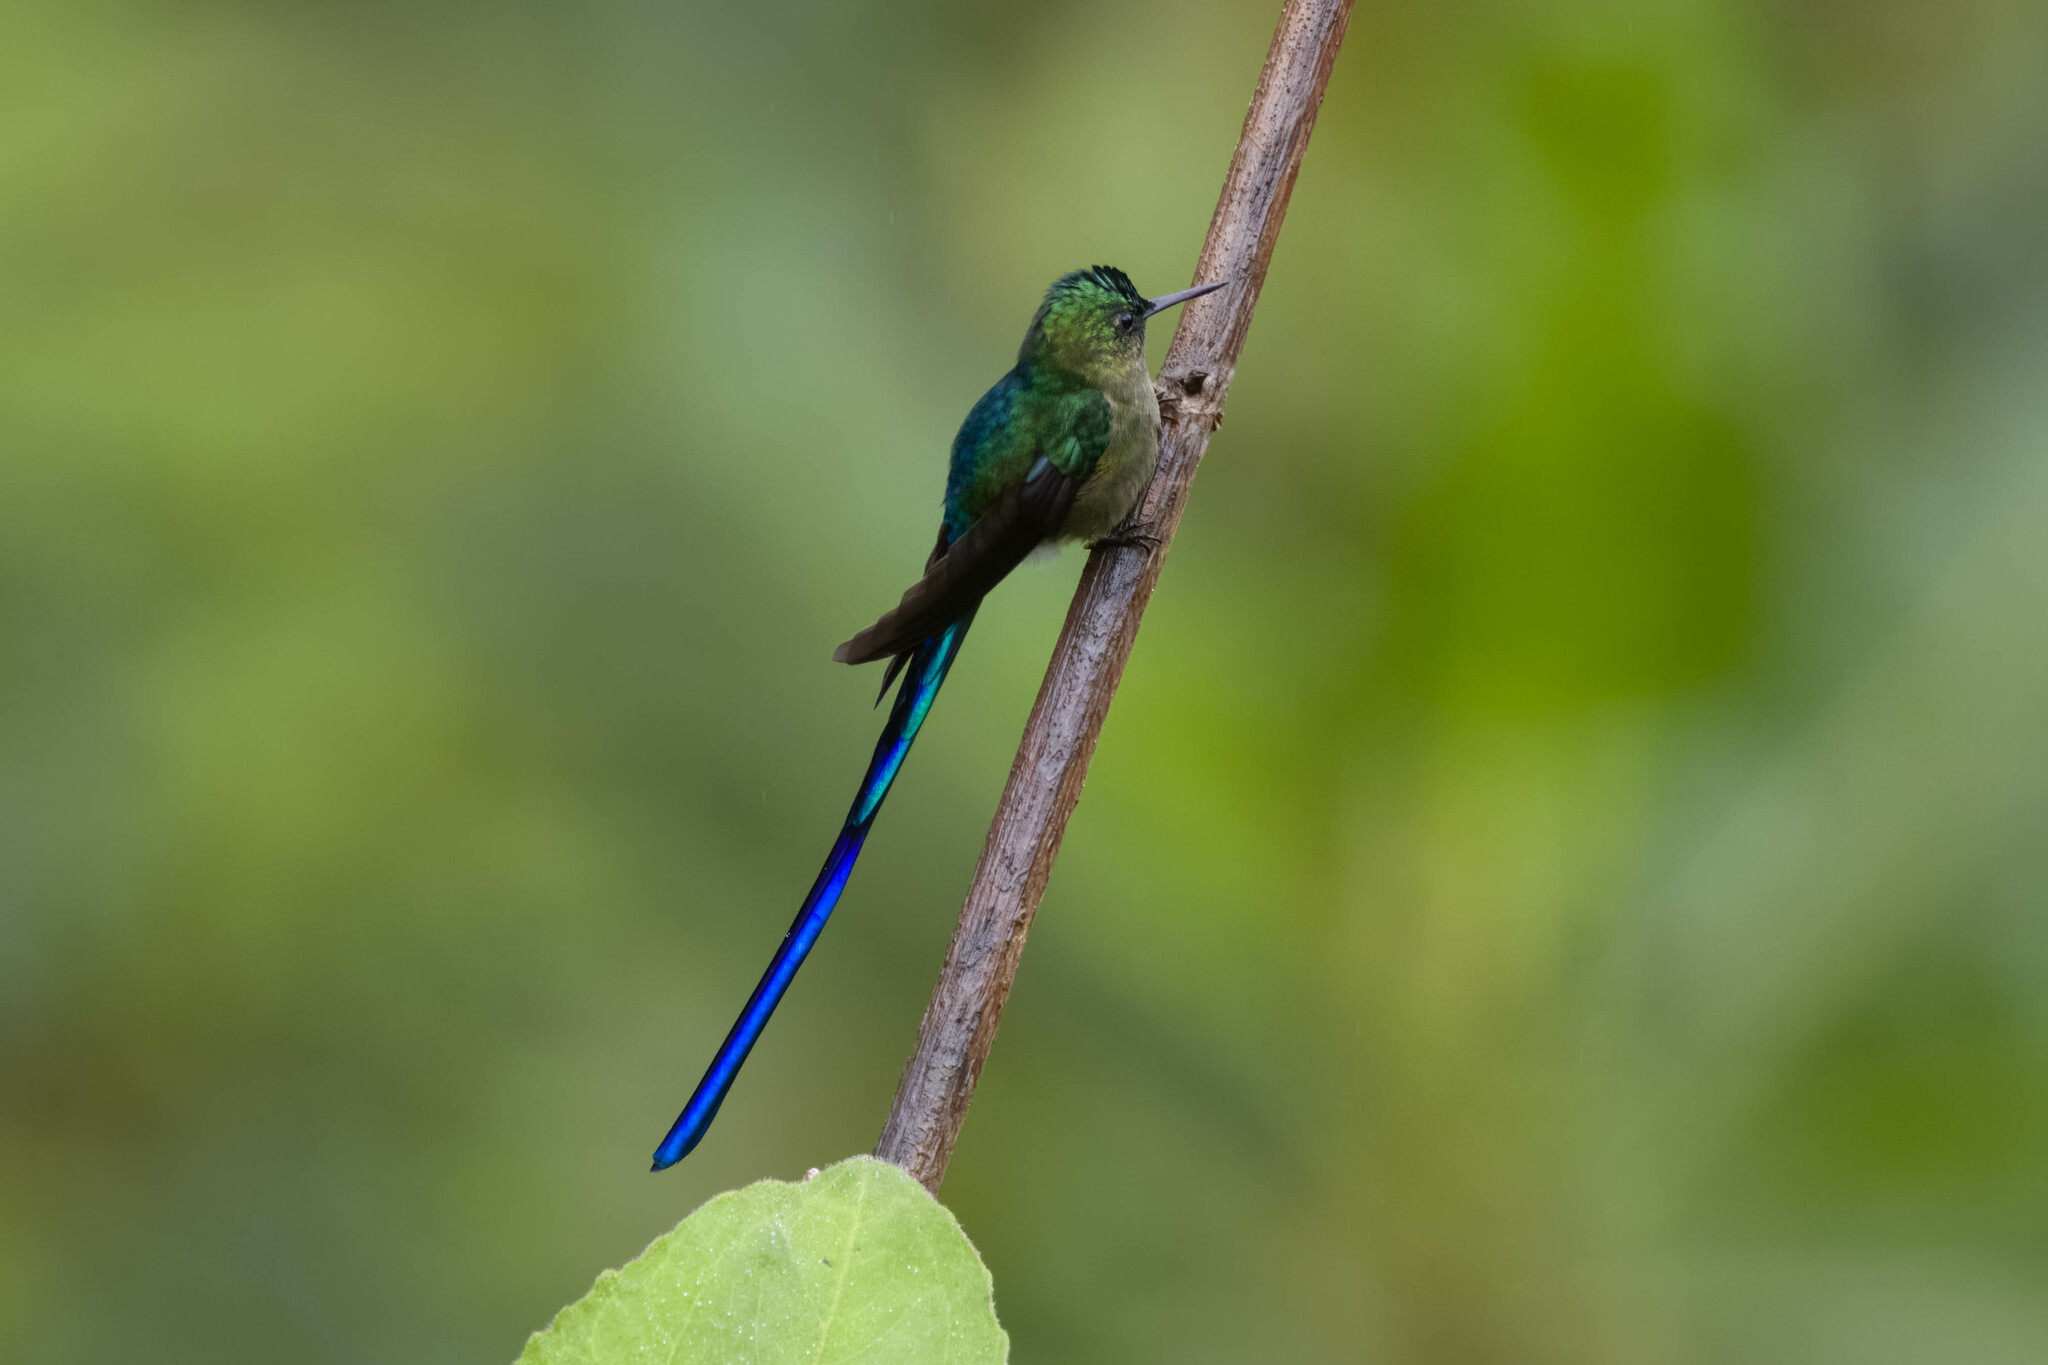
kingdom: Animalia
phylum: Chordata
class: Aves
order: Apodiformes
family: Trochilidae
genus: Aglaiocercus
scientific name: Aglaiocercus coelestis
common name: Violet-tailed sylph
